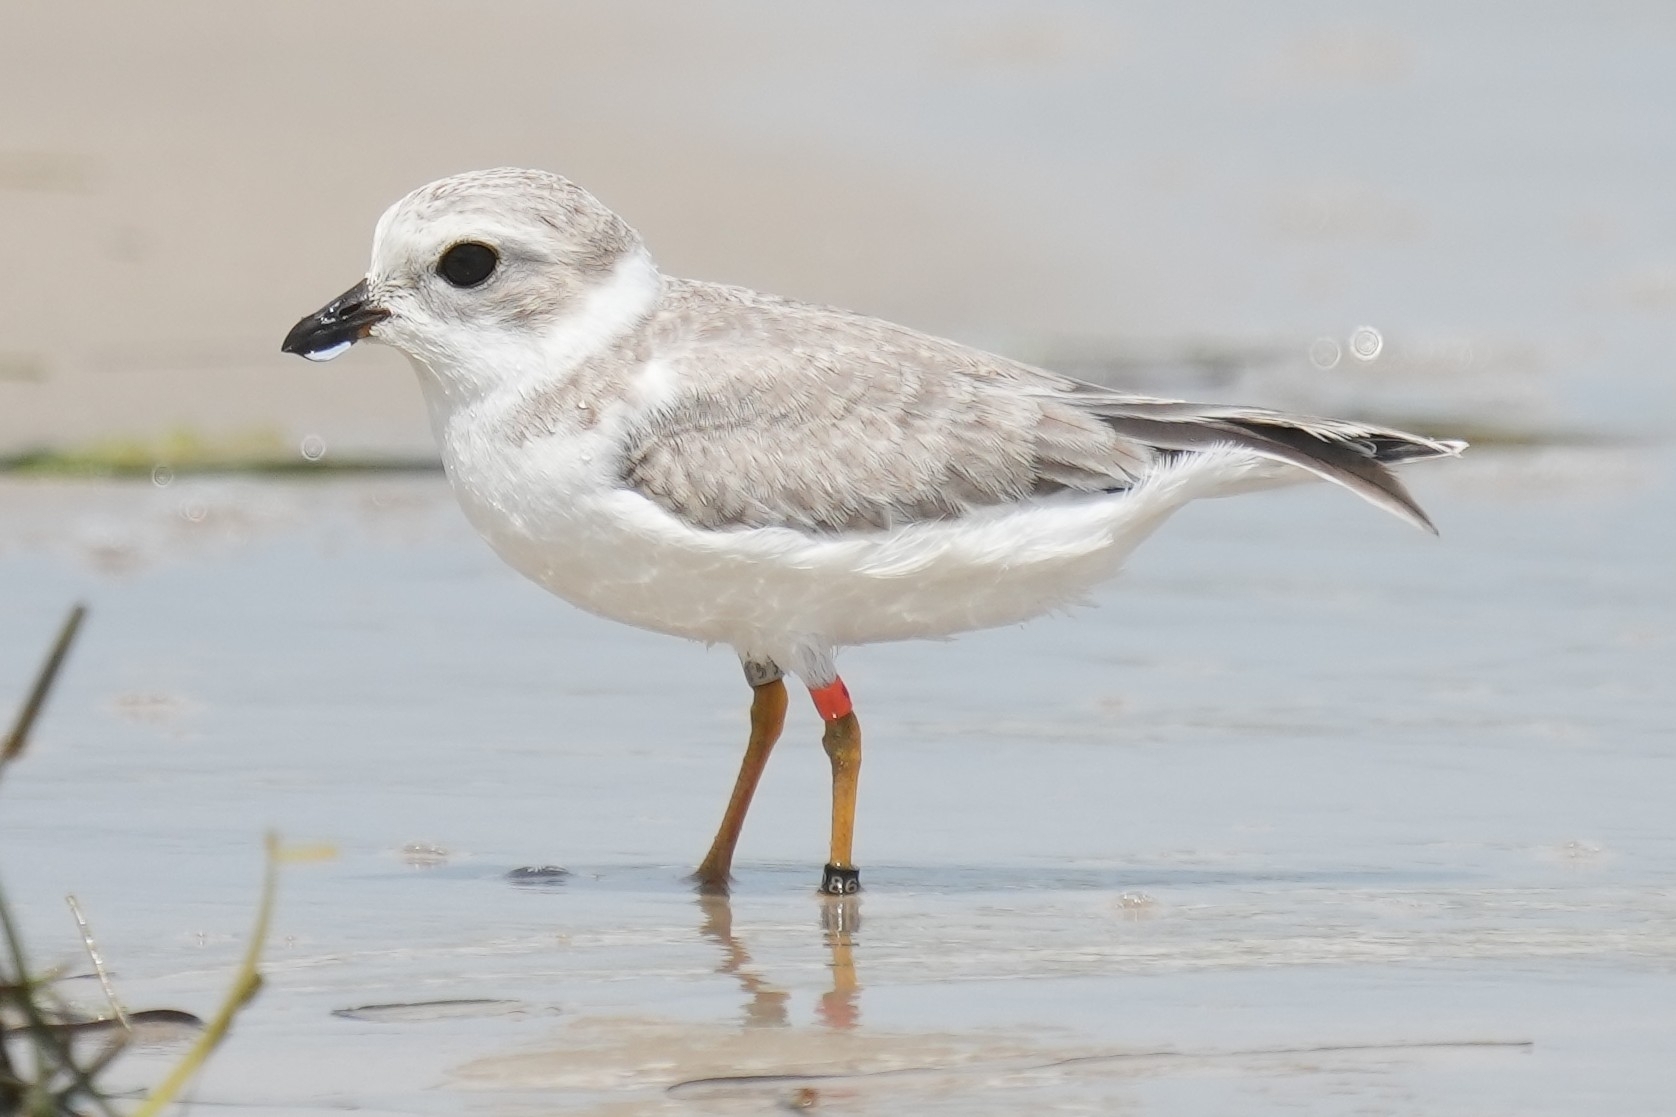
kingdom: Animalia
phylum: Chordata
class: Aves
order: Charadriiformes
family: Charadriidae
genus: Charadrius
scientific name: Charadrius melodus
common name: Piping plover
